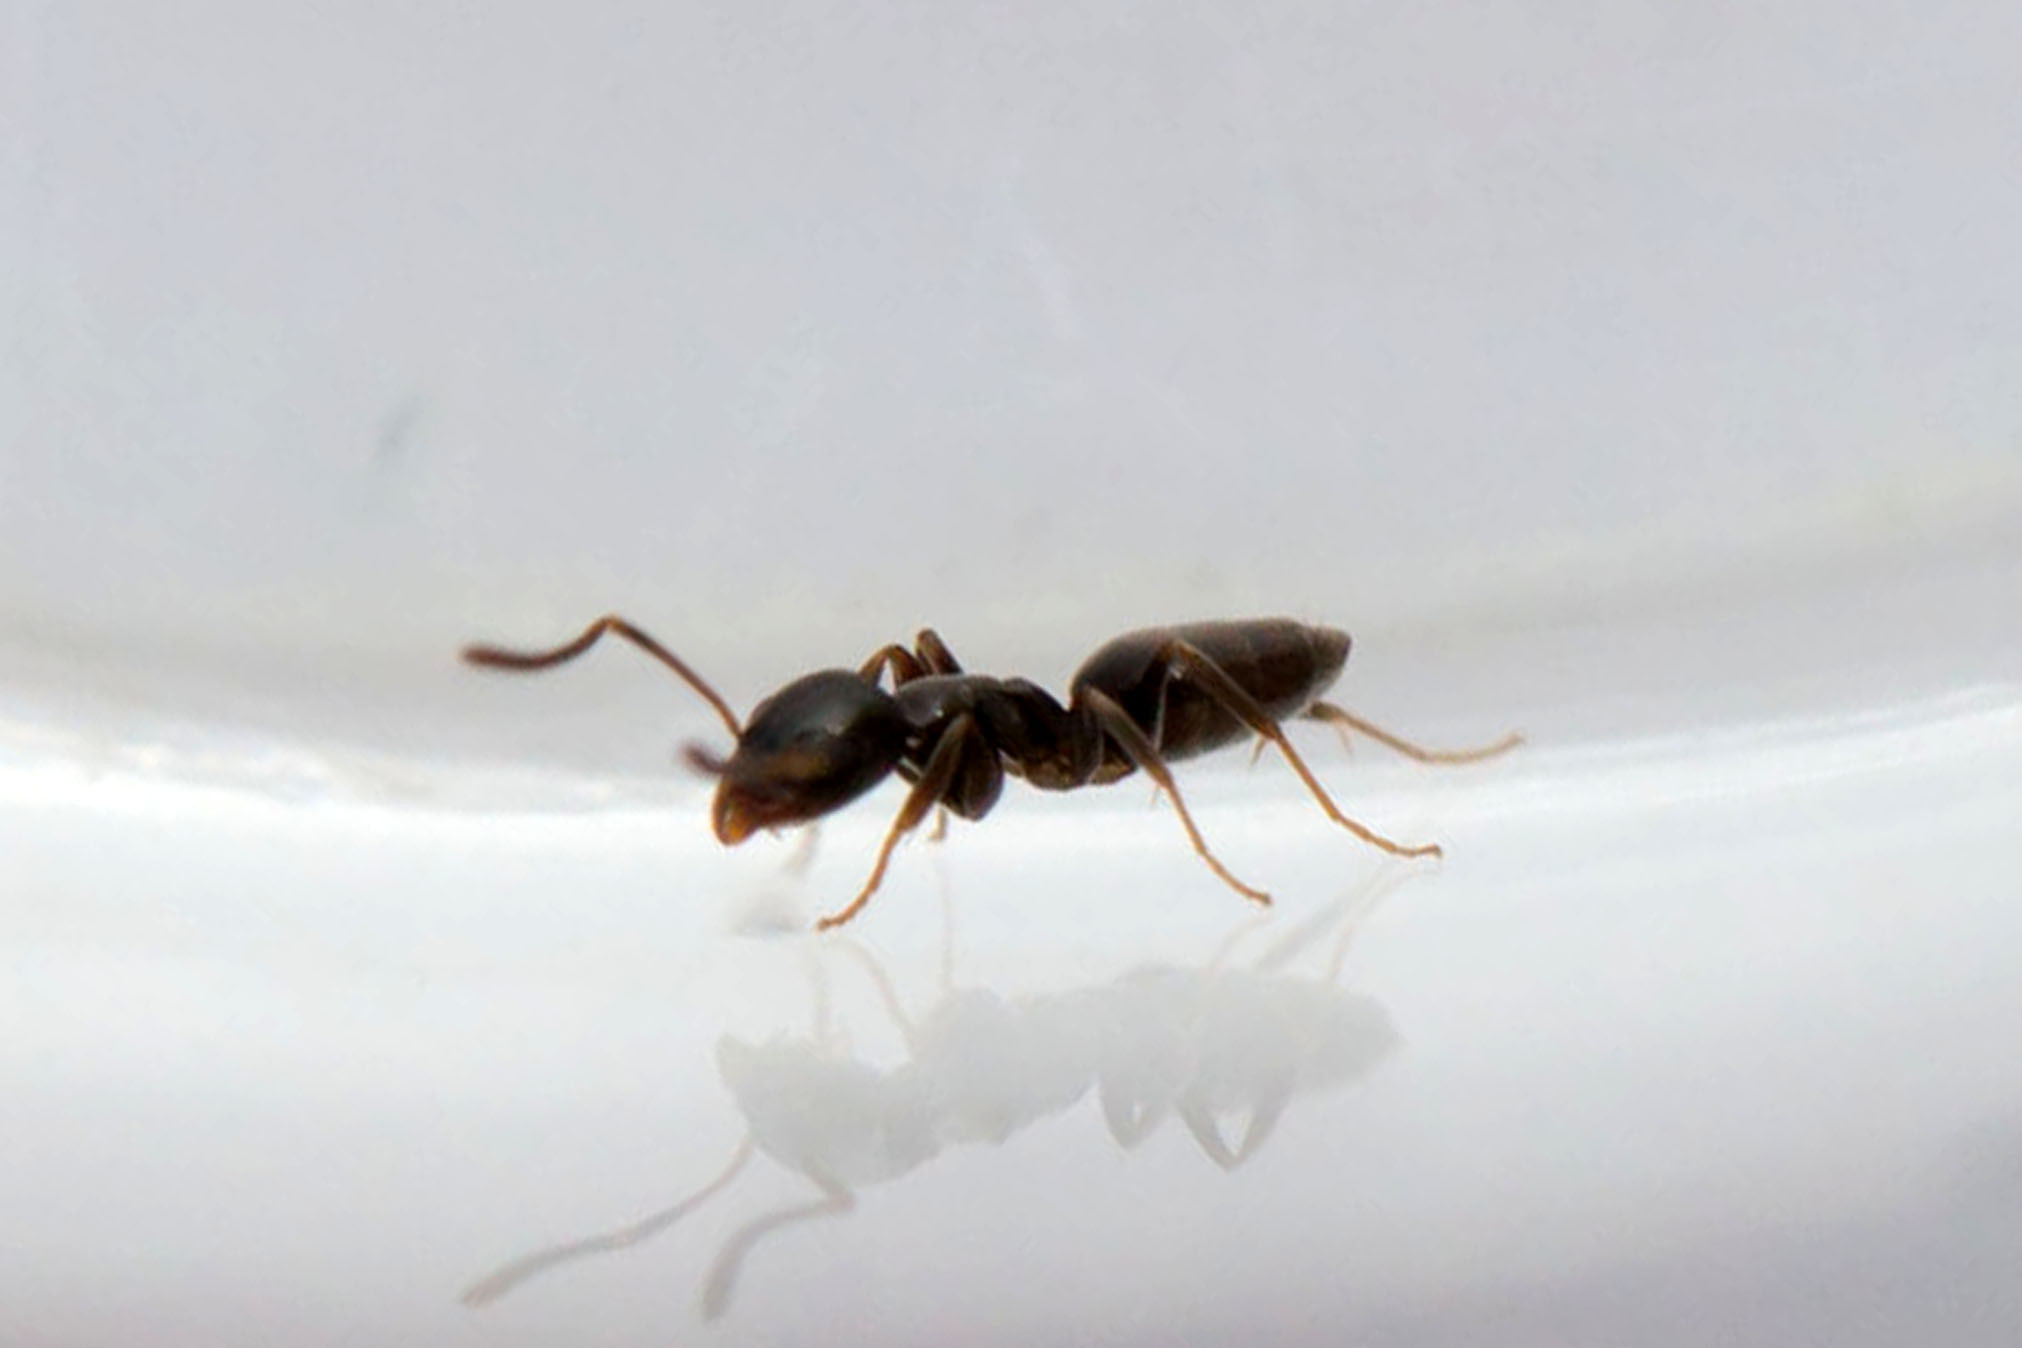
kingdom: Animalia
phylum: Arthropoda
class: Insecta
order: Hymenoptera
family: Formicidae
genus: Tapinoma
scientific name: Tapinoma sessile
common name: Odorous house ant
